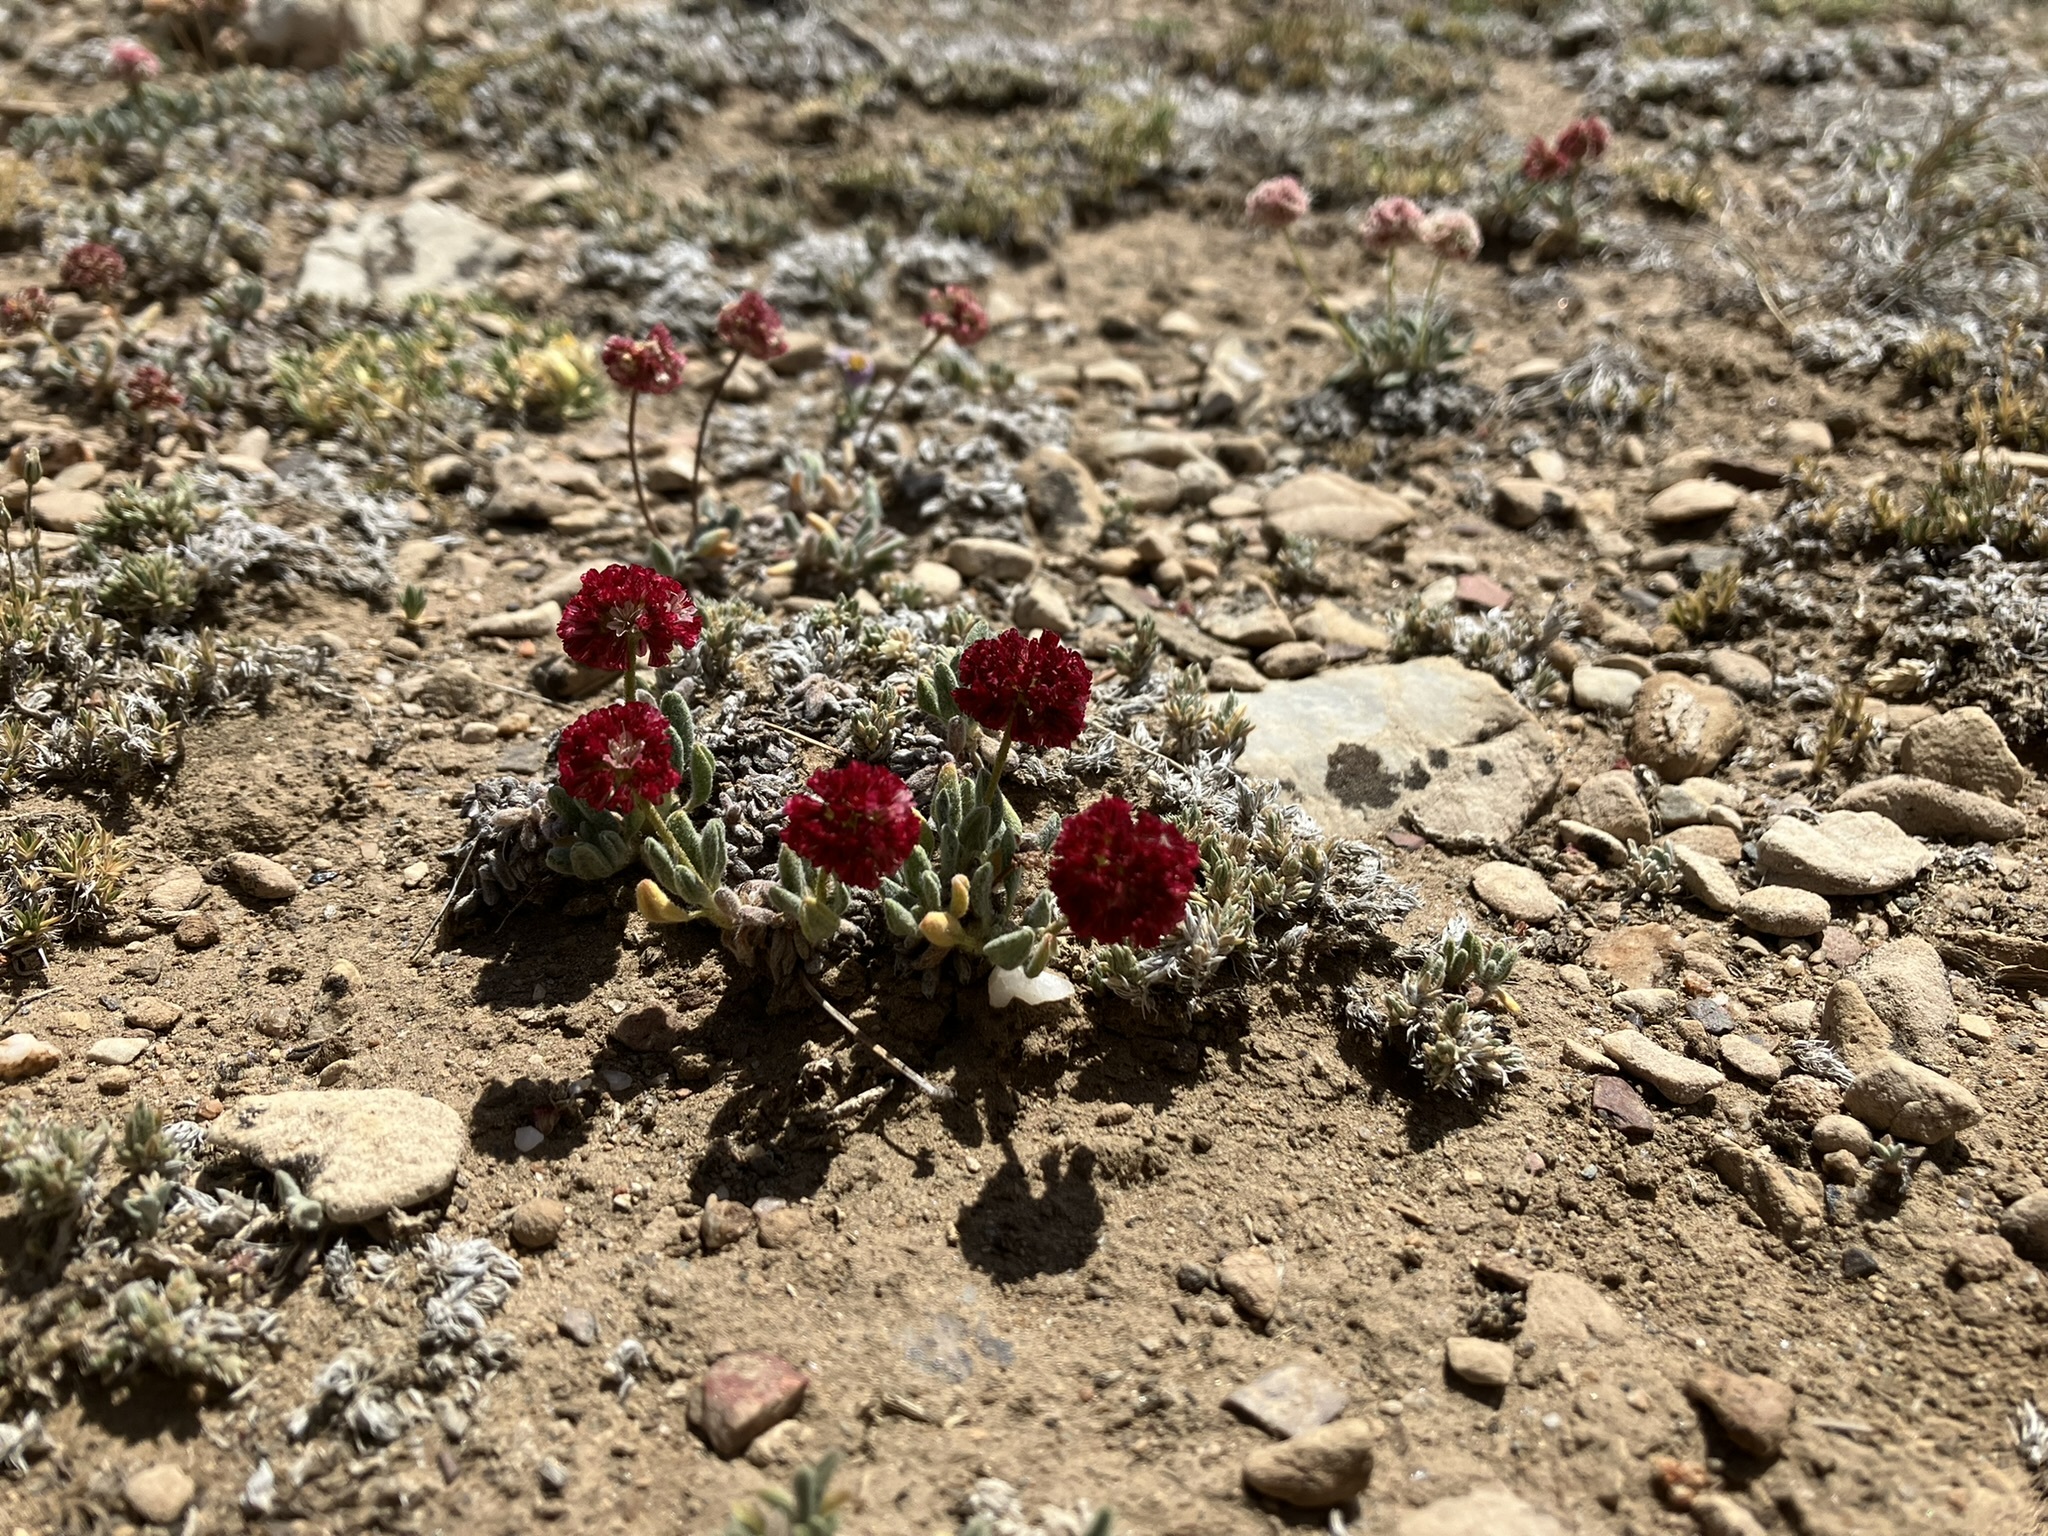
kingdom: Plantae
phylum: Tracheophyta
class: Magnoliopsida
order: Caryophyllales
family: Polygonaceae
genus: Eriogonum
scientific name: Eriogonum gracilipes
